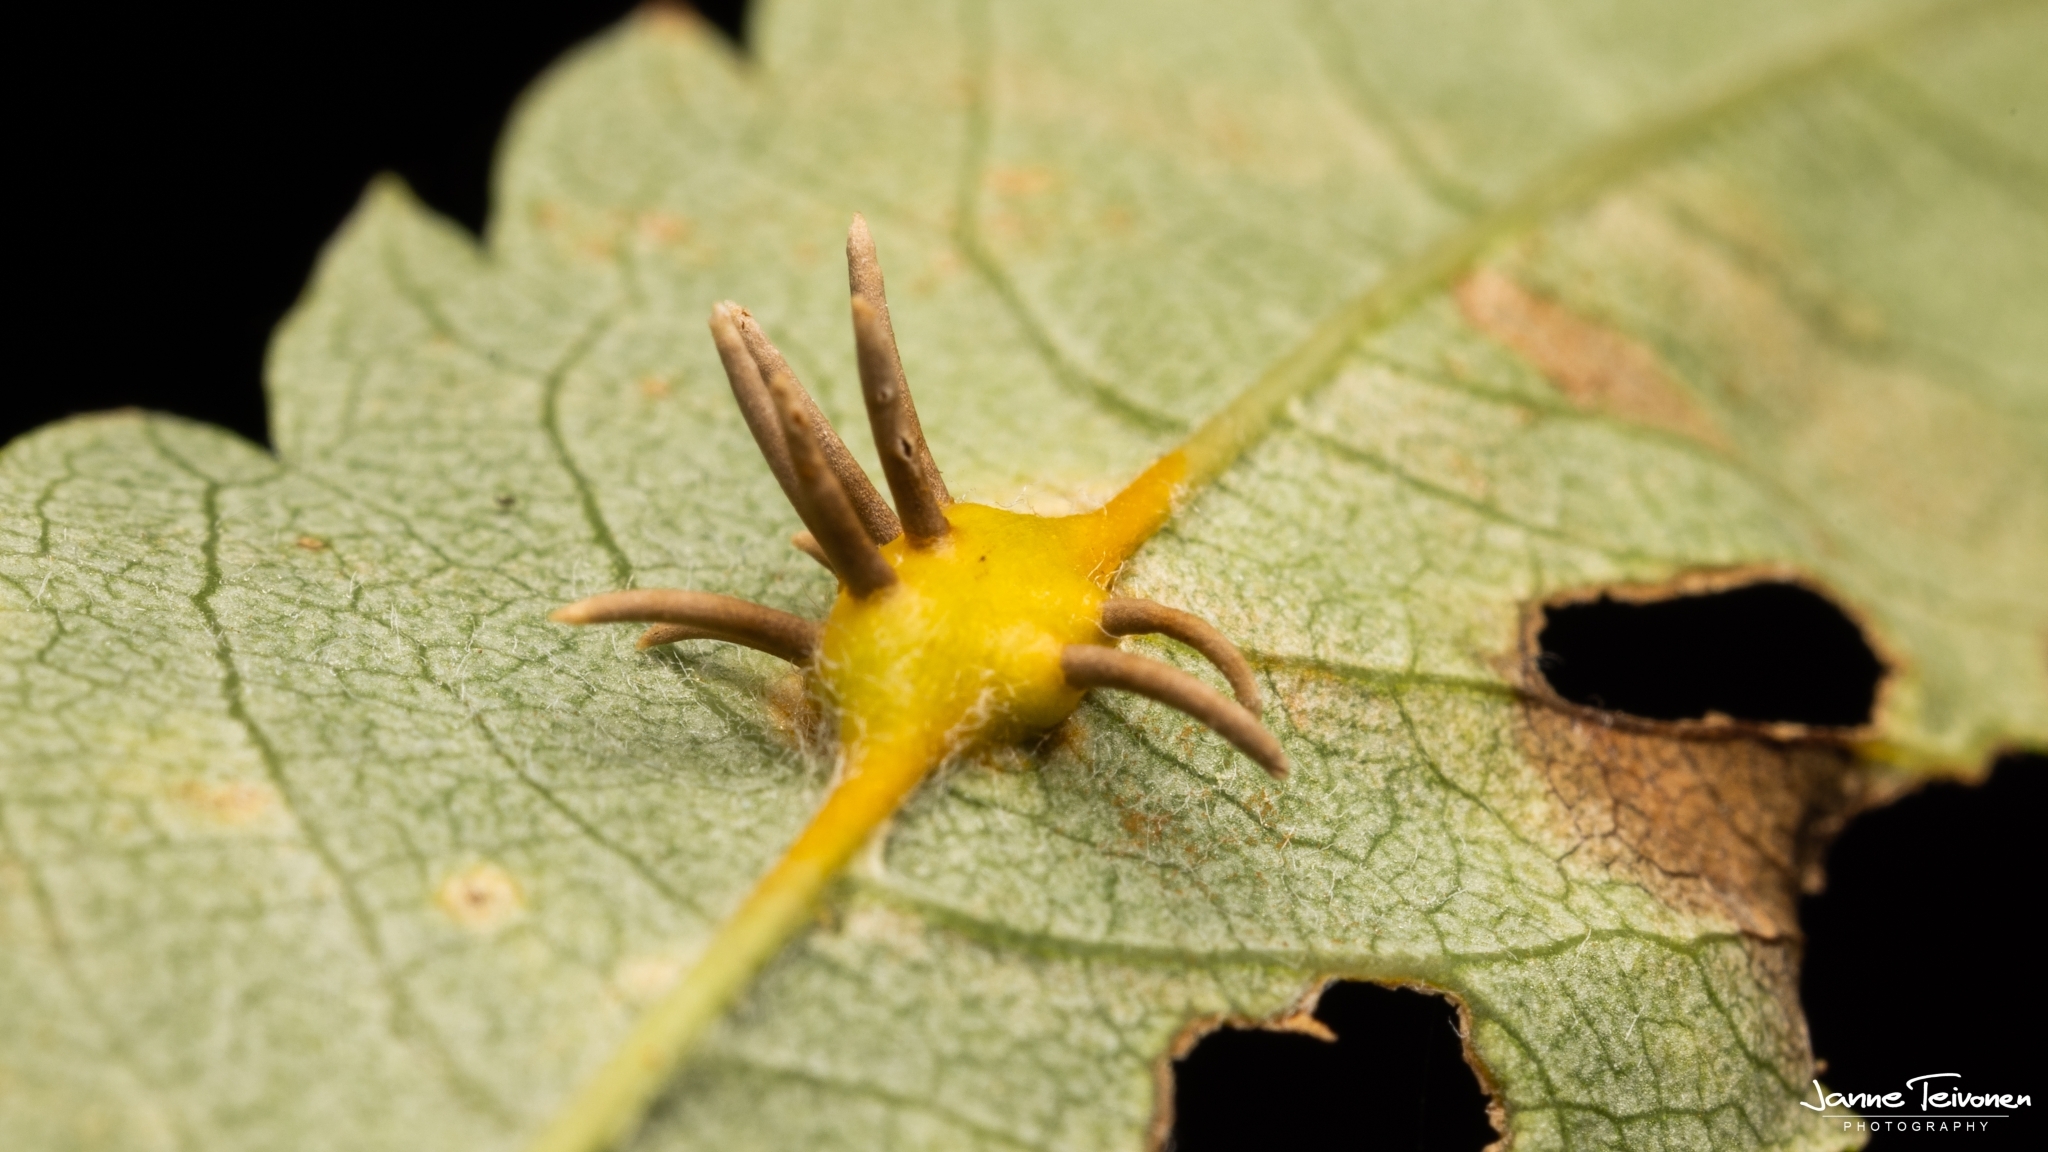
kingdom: Fungi
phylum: Basidiomycota
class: Pucciniomycetes
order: Pucciniales
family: Gymnosporangiaceae
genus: Gymnosporangium
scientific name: Gymnosporangium cornutum
